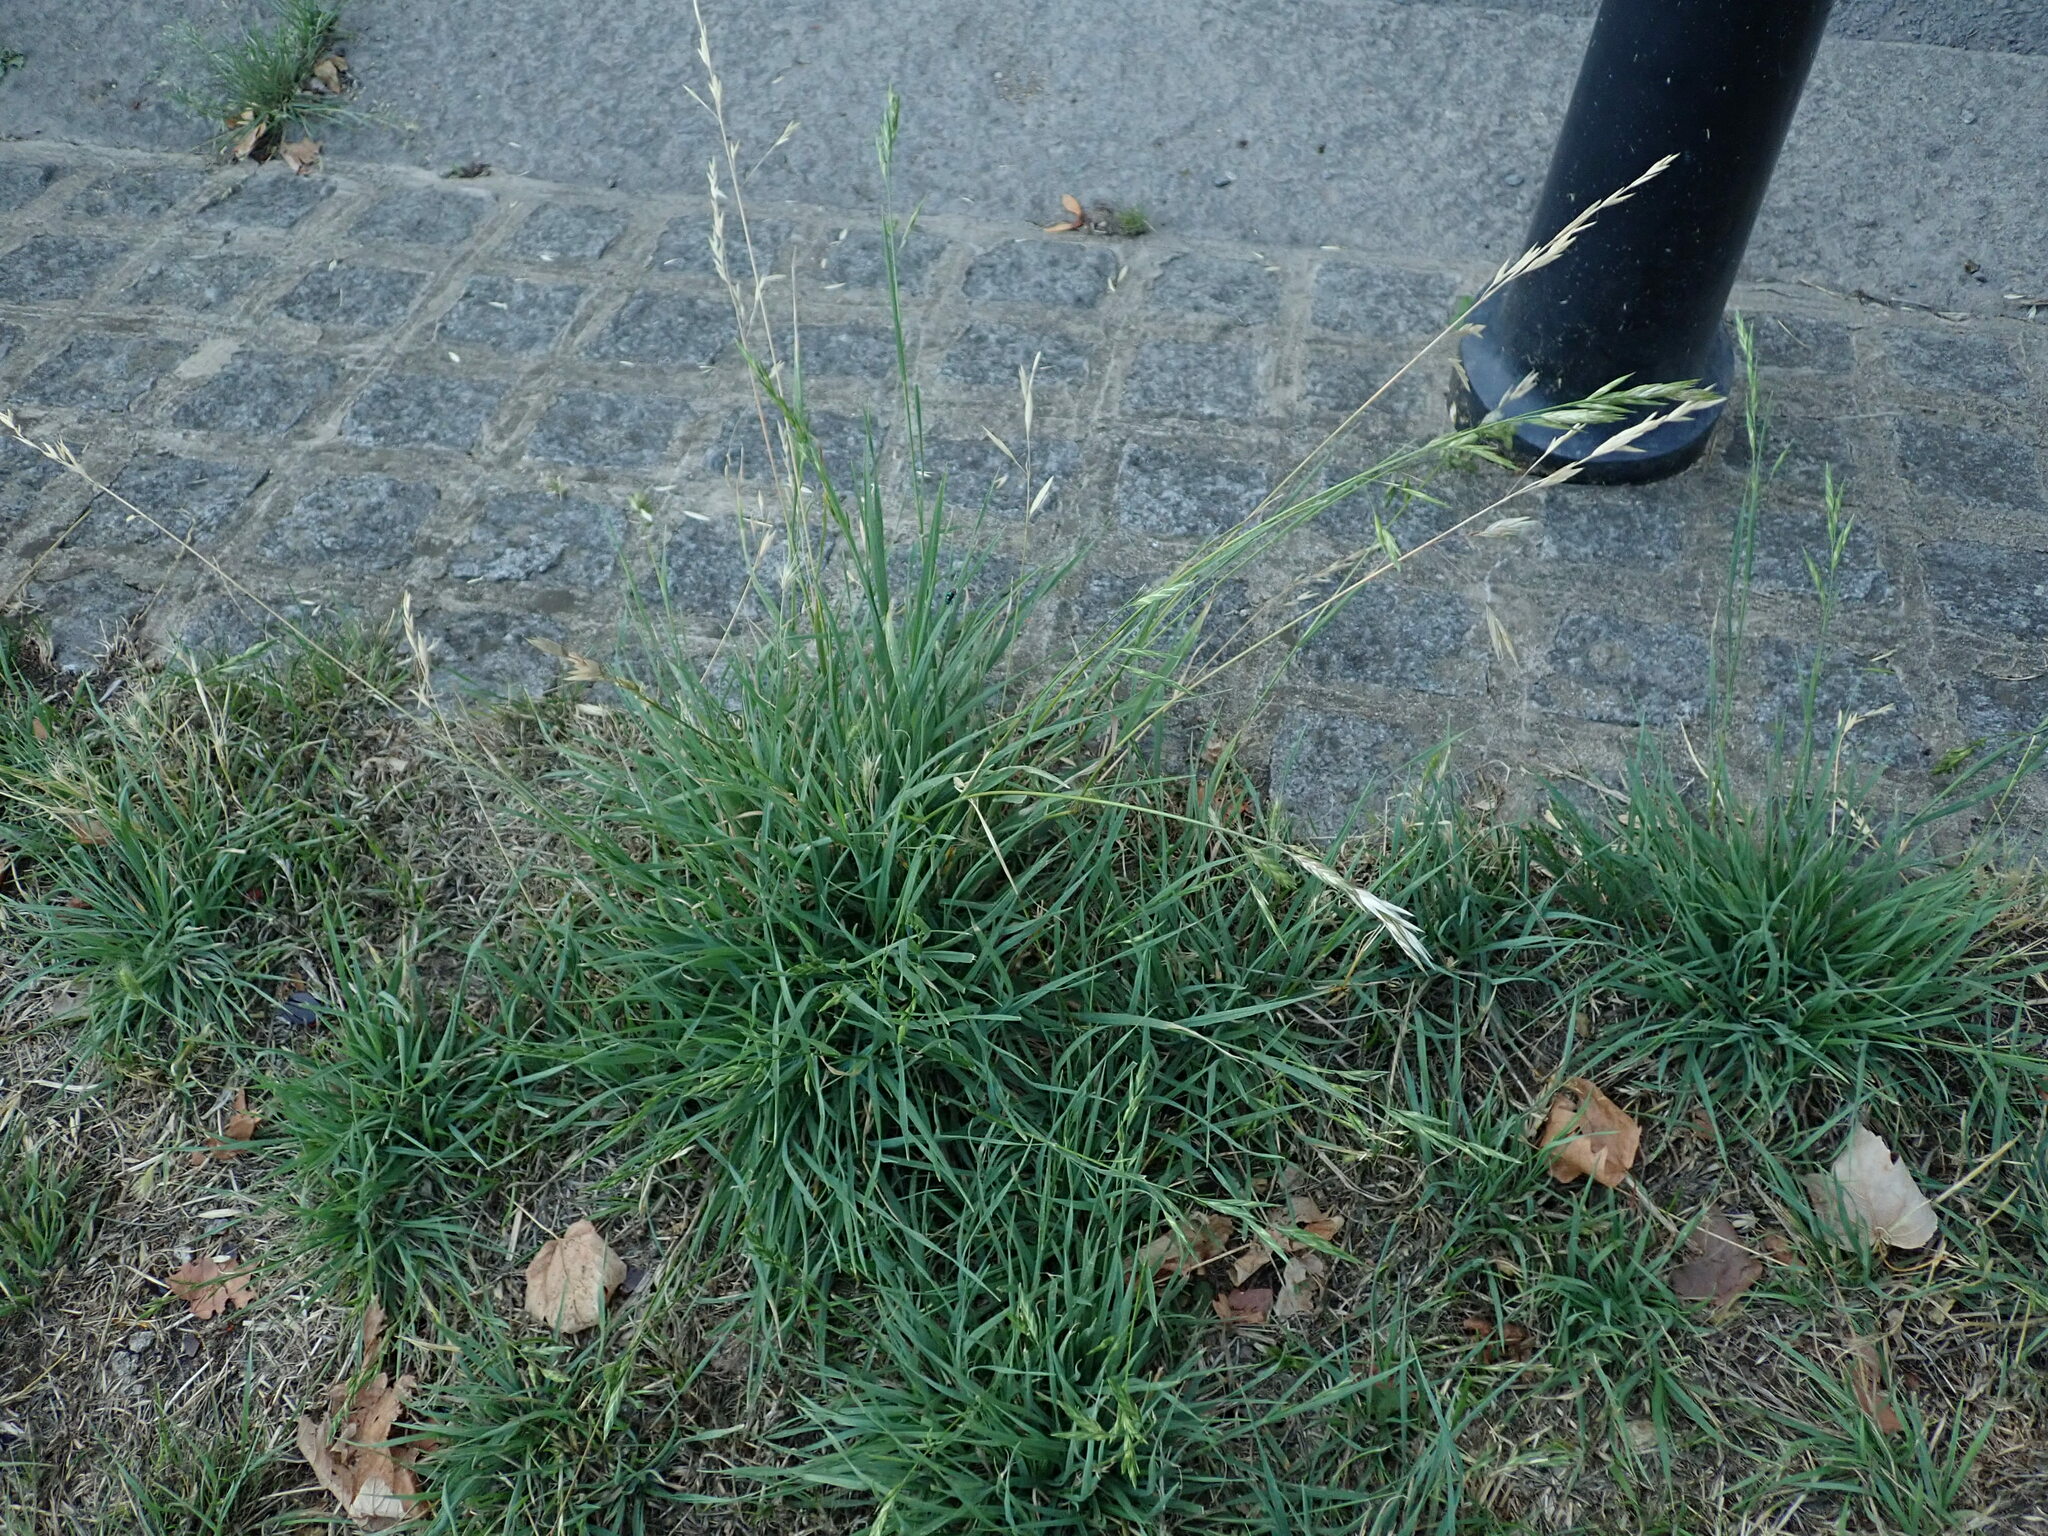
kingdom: Plantae
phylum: Tracheophyta
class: Liliopsida
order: Poales
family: Poaceae
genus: Bromus
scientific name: Bromus carinatus
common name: Mountain brome
